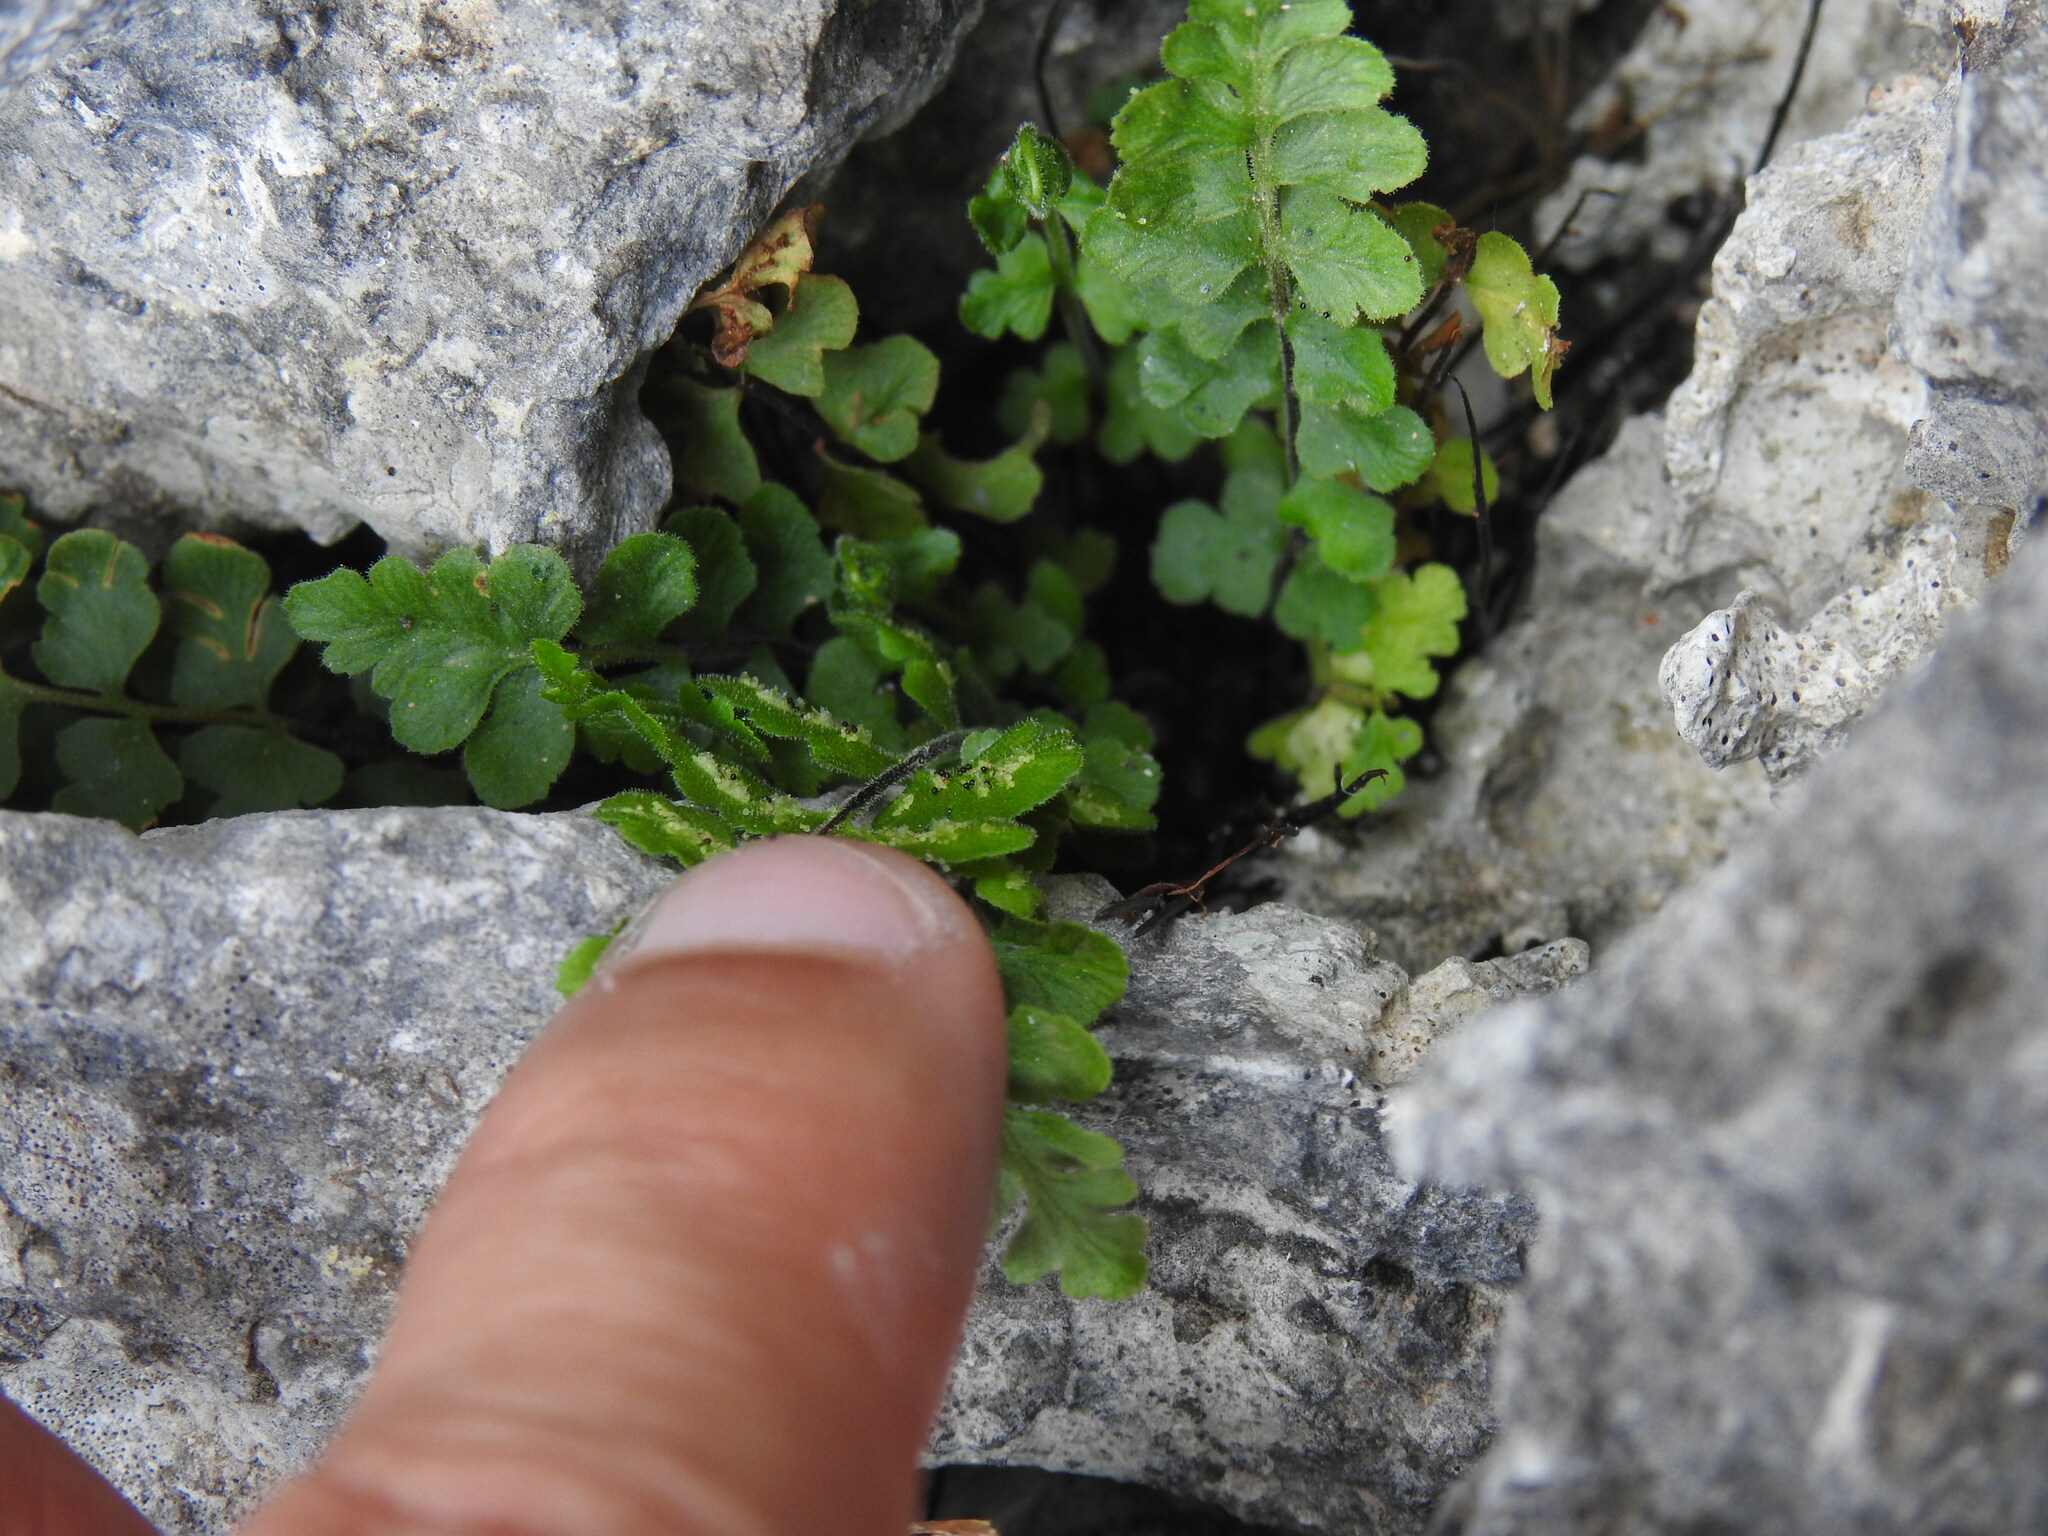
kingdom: Plantae
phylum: Tracheophyta
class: Polypodiopsida
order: Polypodiales
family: Aspleniaceae
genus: Asplenium
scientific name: Asplenium petrarchae
